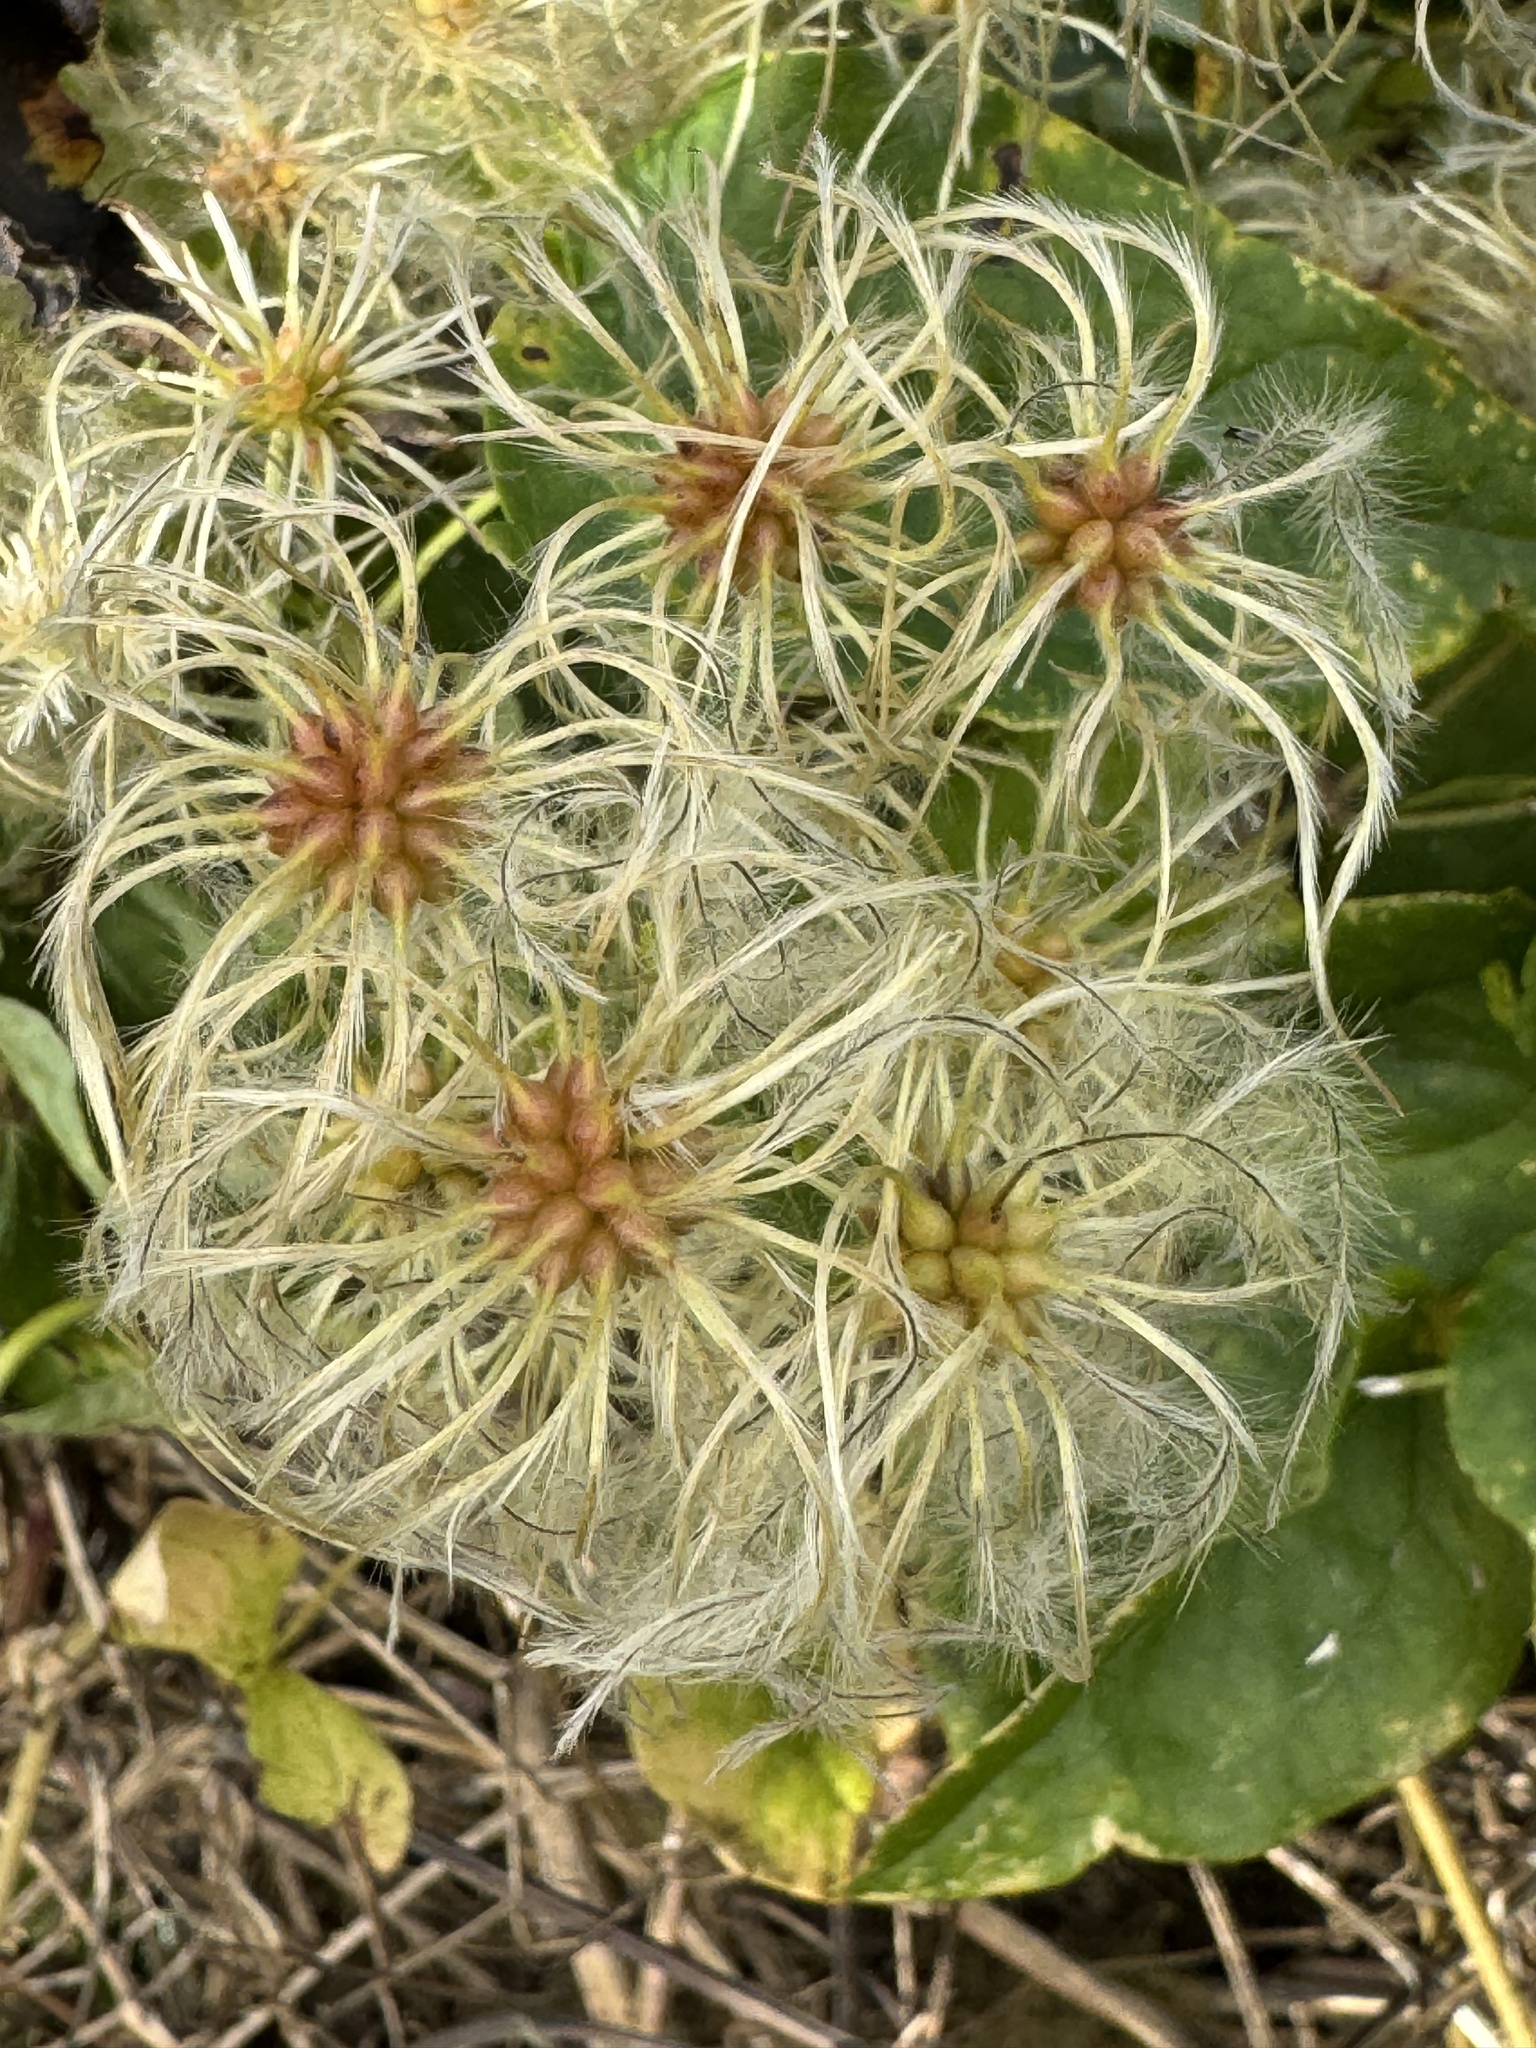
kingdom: Plantae
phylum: Tracheophyta
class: Magnoliopsida
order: Ranunculales
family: Ranunculaceae
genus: Clematis
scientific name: Clematis vitalba
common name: Evergreen clematis
